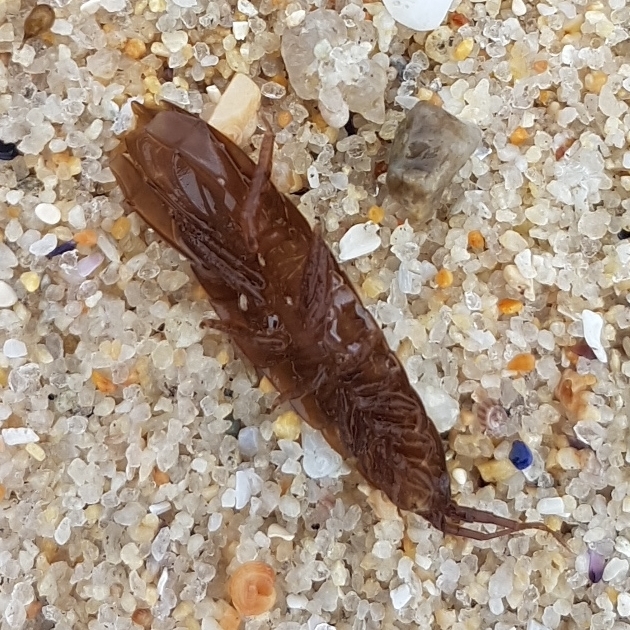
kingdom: Animalia
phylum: Arthropoda
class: Malacostraca
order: Isopoda
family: Idoteidae
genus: Idotea
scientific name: Idotea balthica
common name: Baltic isopod
